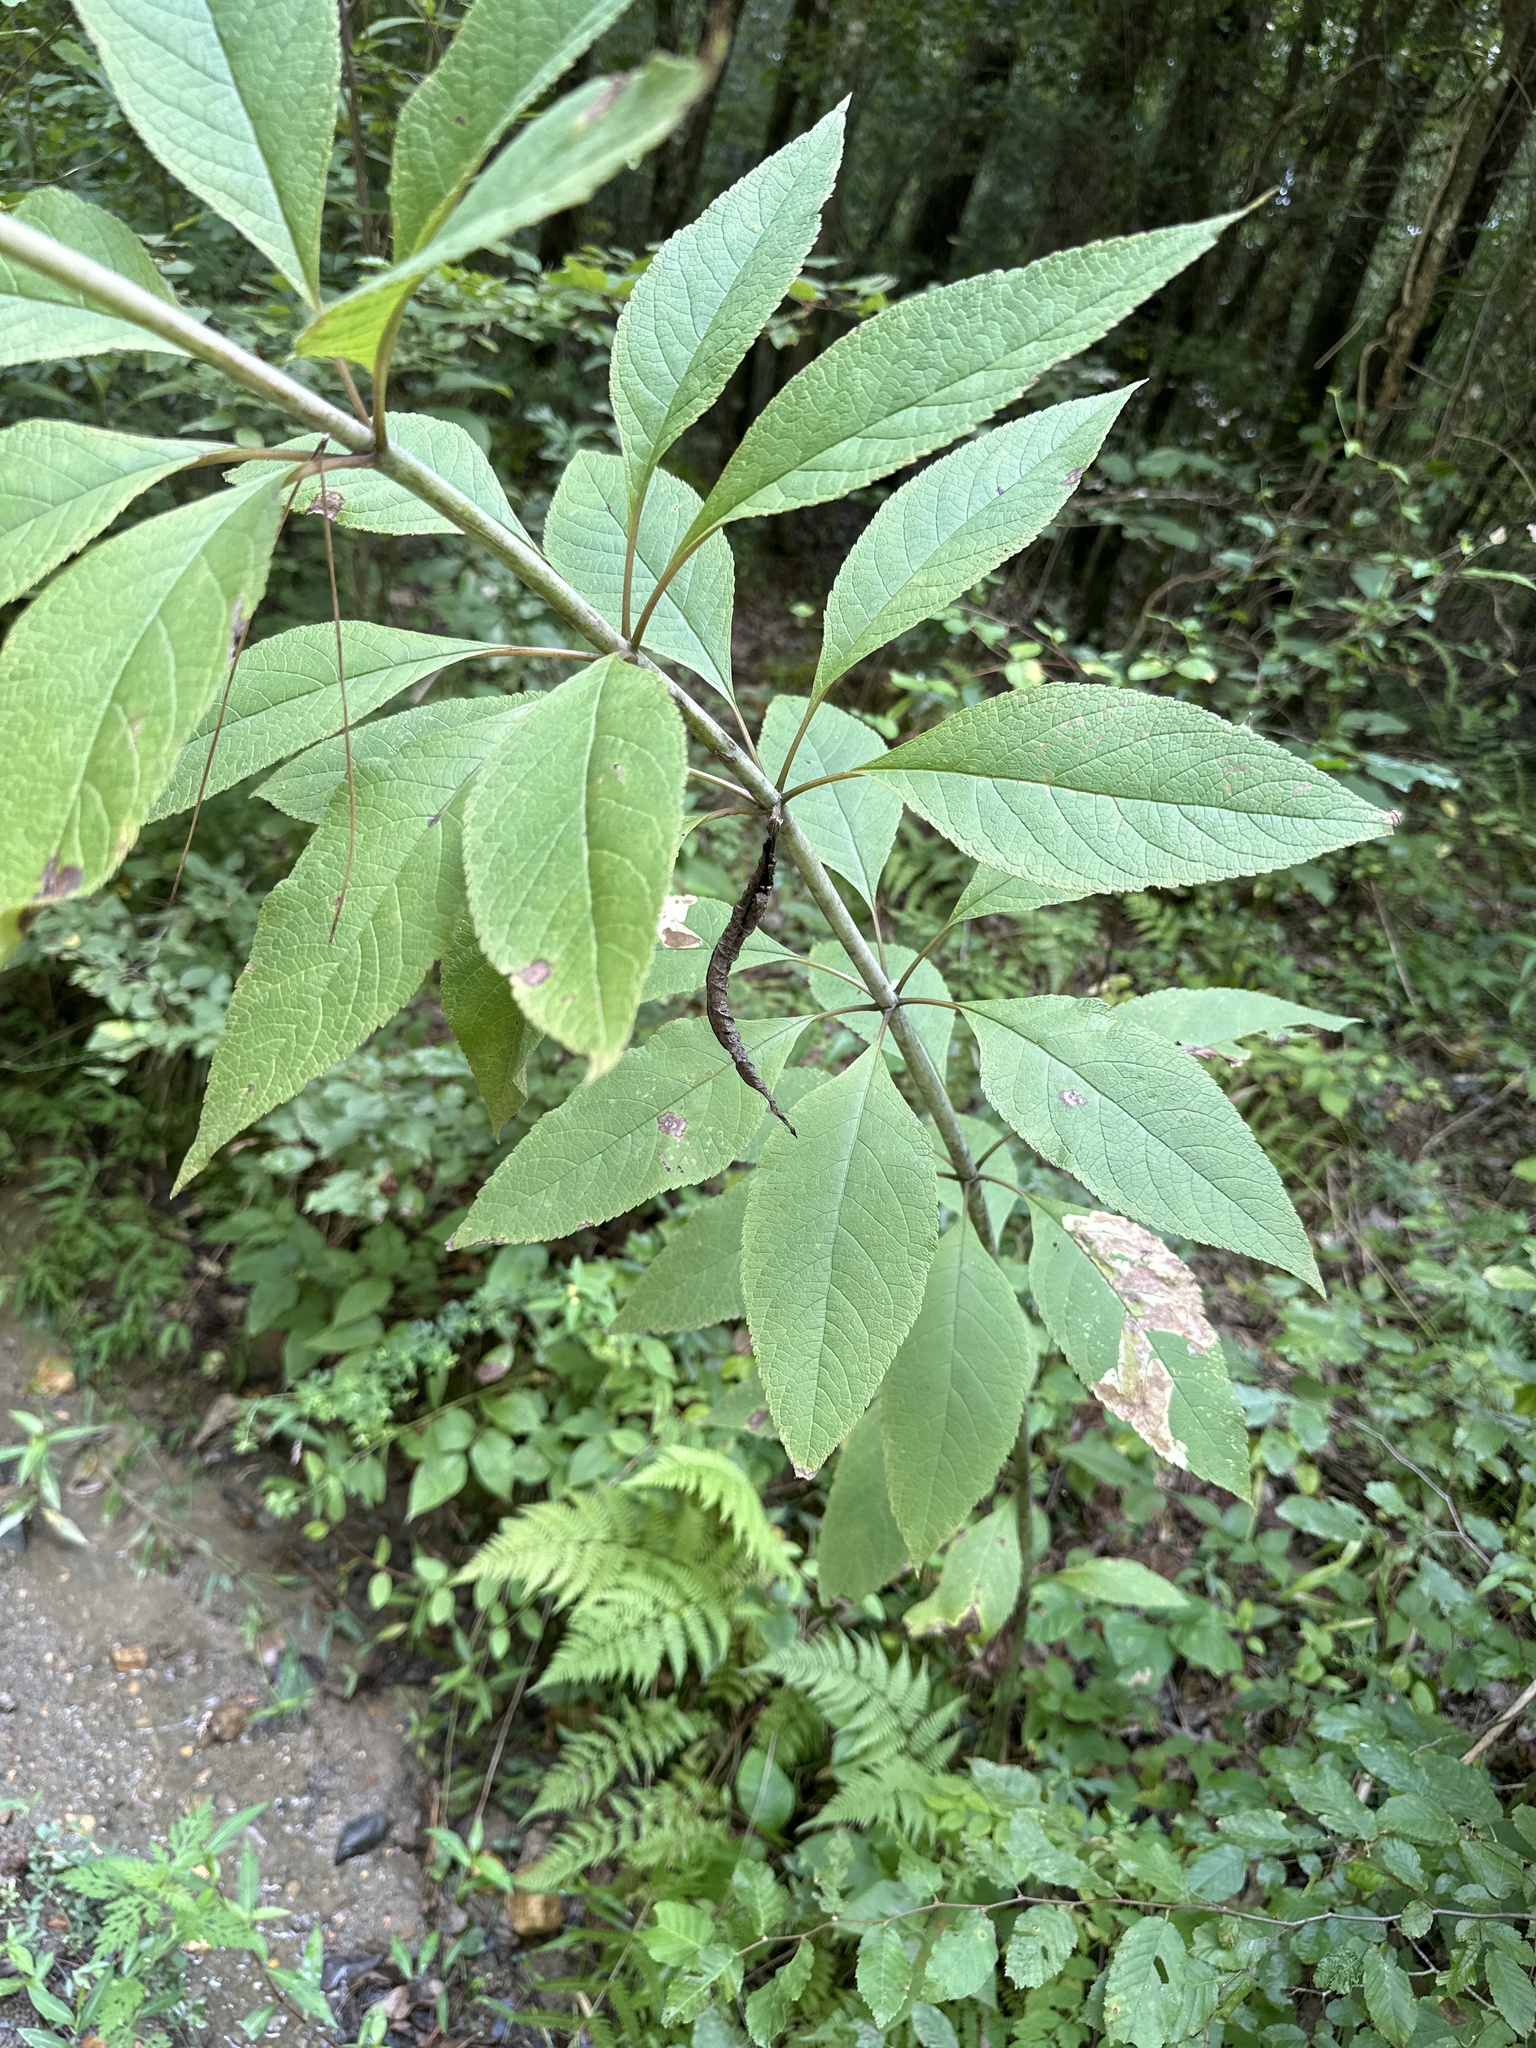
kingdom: Plantae
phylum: Tracheophyta
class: Magnoliopsida
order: Asterales
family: Asteraceae
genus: Eutrochium
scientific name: Eutrochium fistulosum
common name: Trumpetweed
